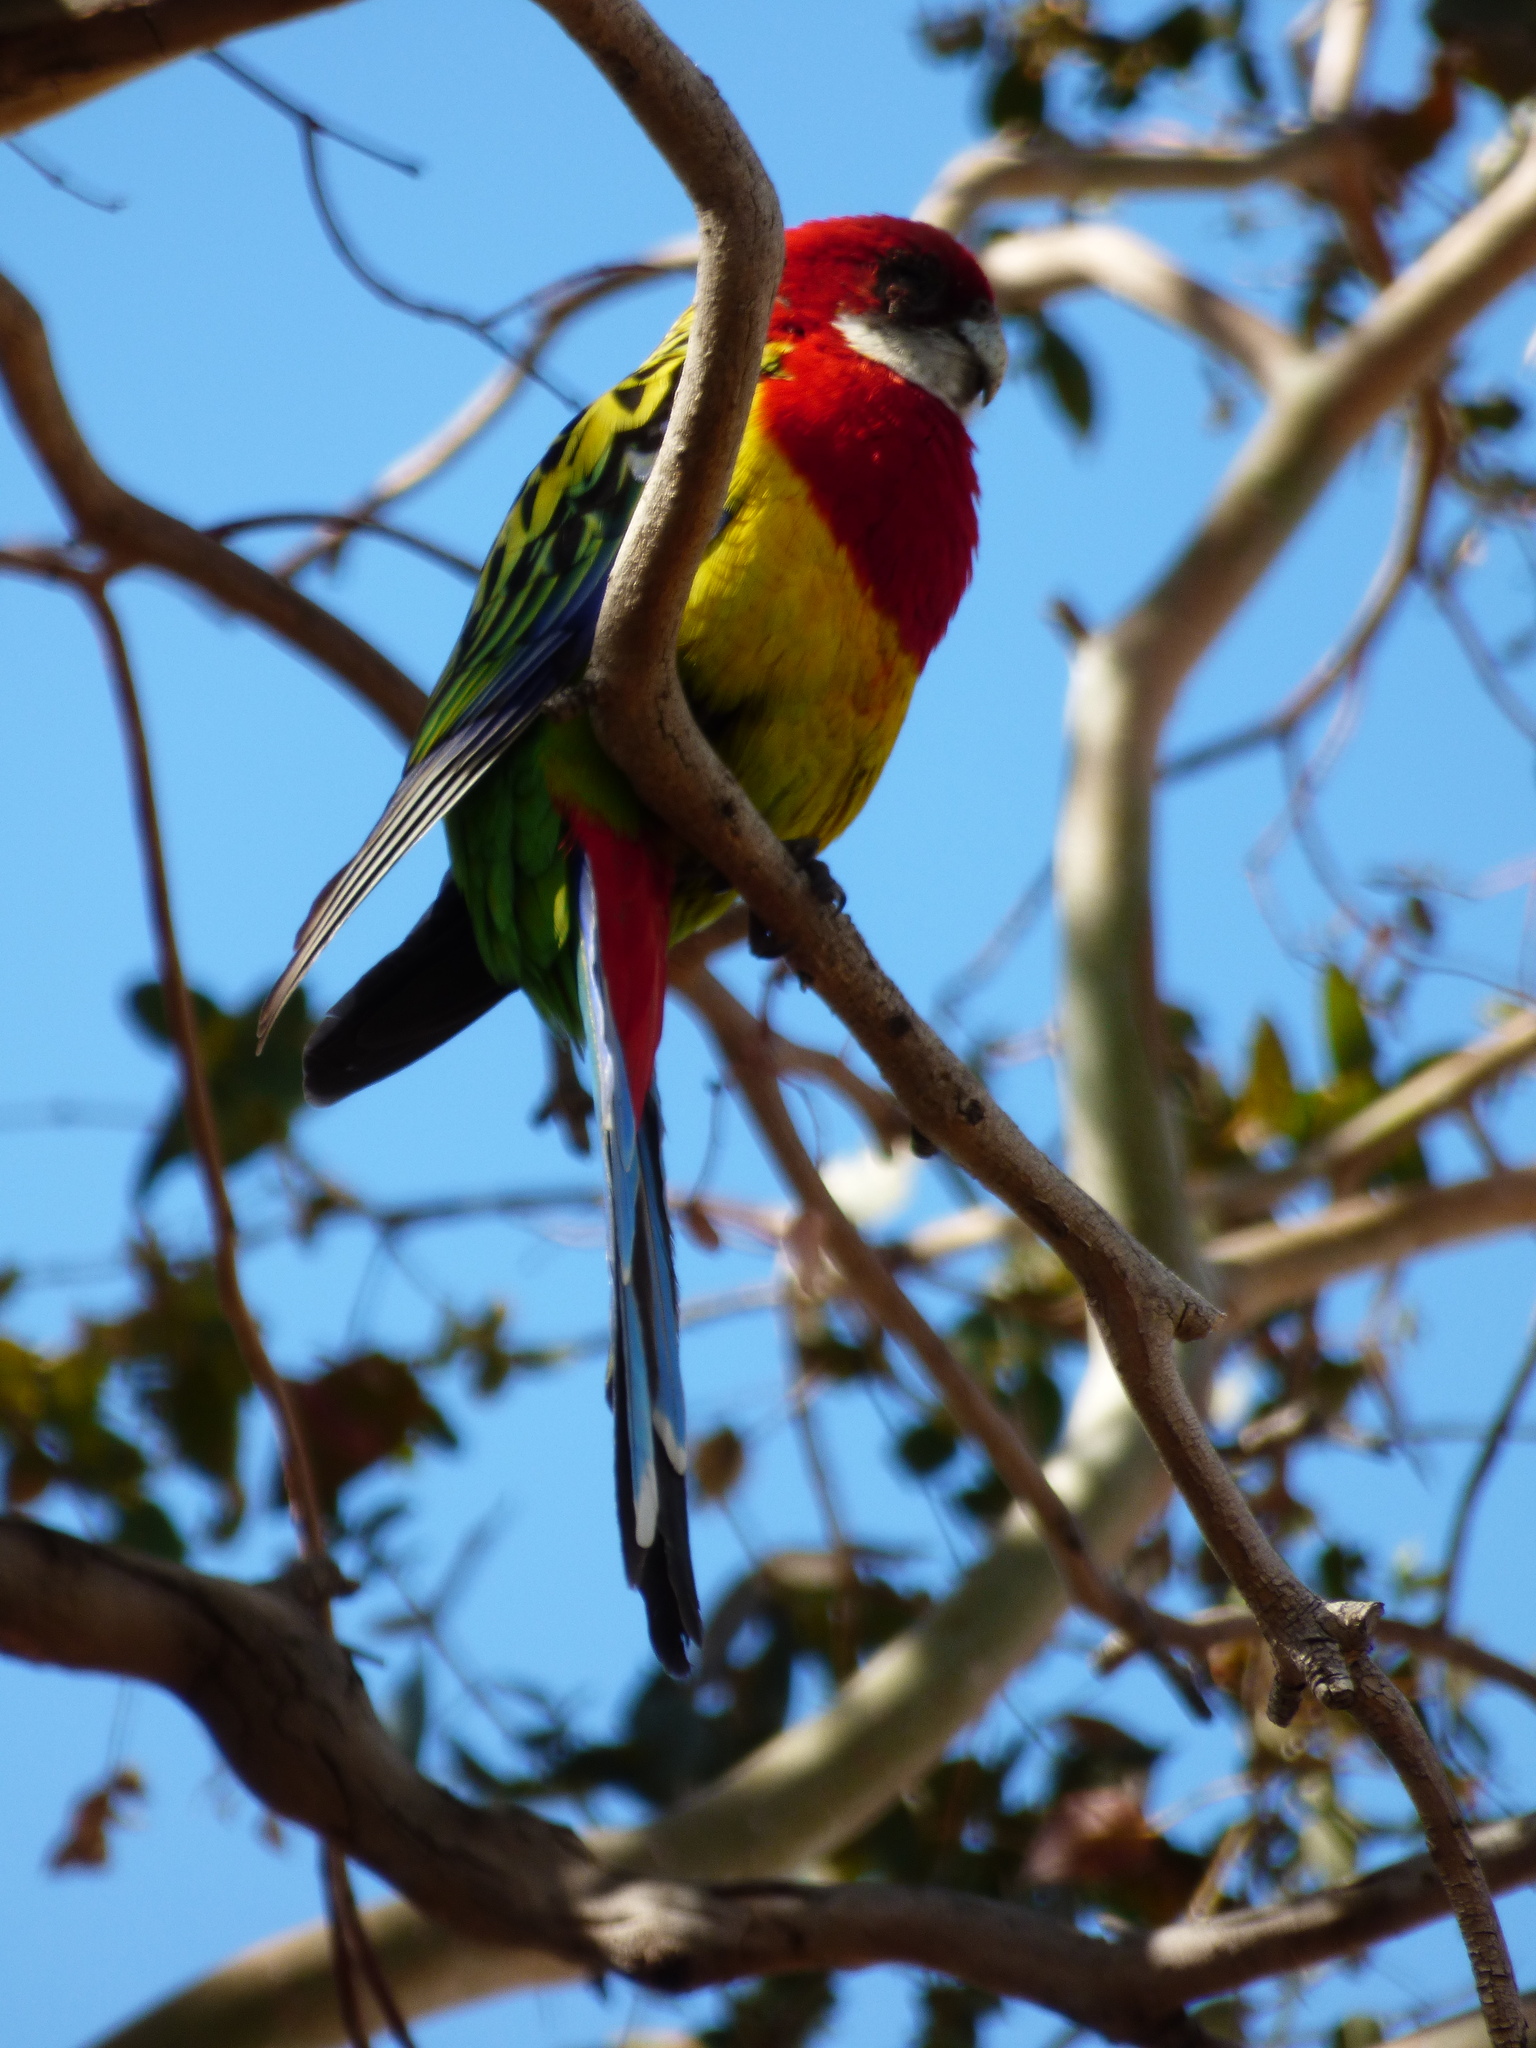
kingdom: Animalia
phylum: Chordata
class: Aves
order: Psittaciformes
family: Psittacidae
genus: Platycercus
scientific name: Platycercus eximius
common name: Eastern rosella
